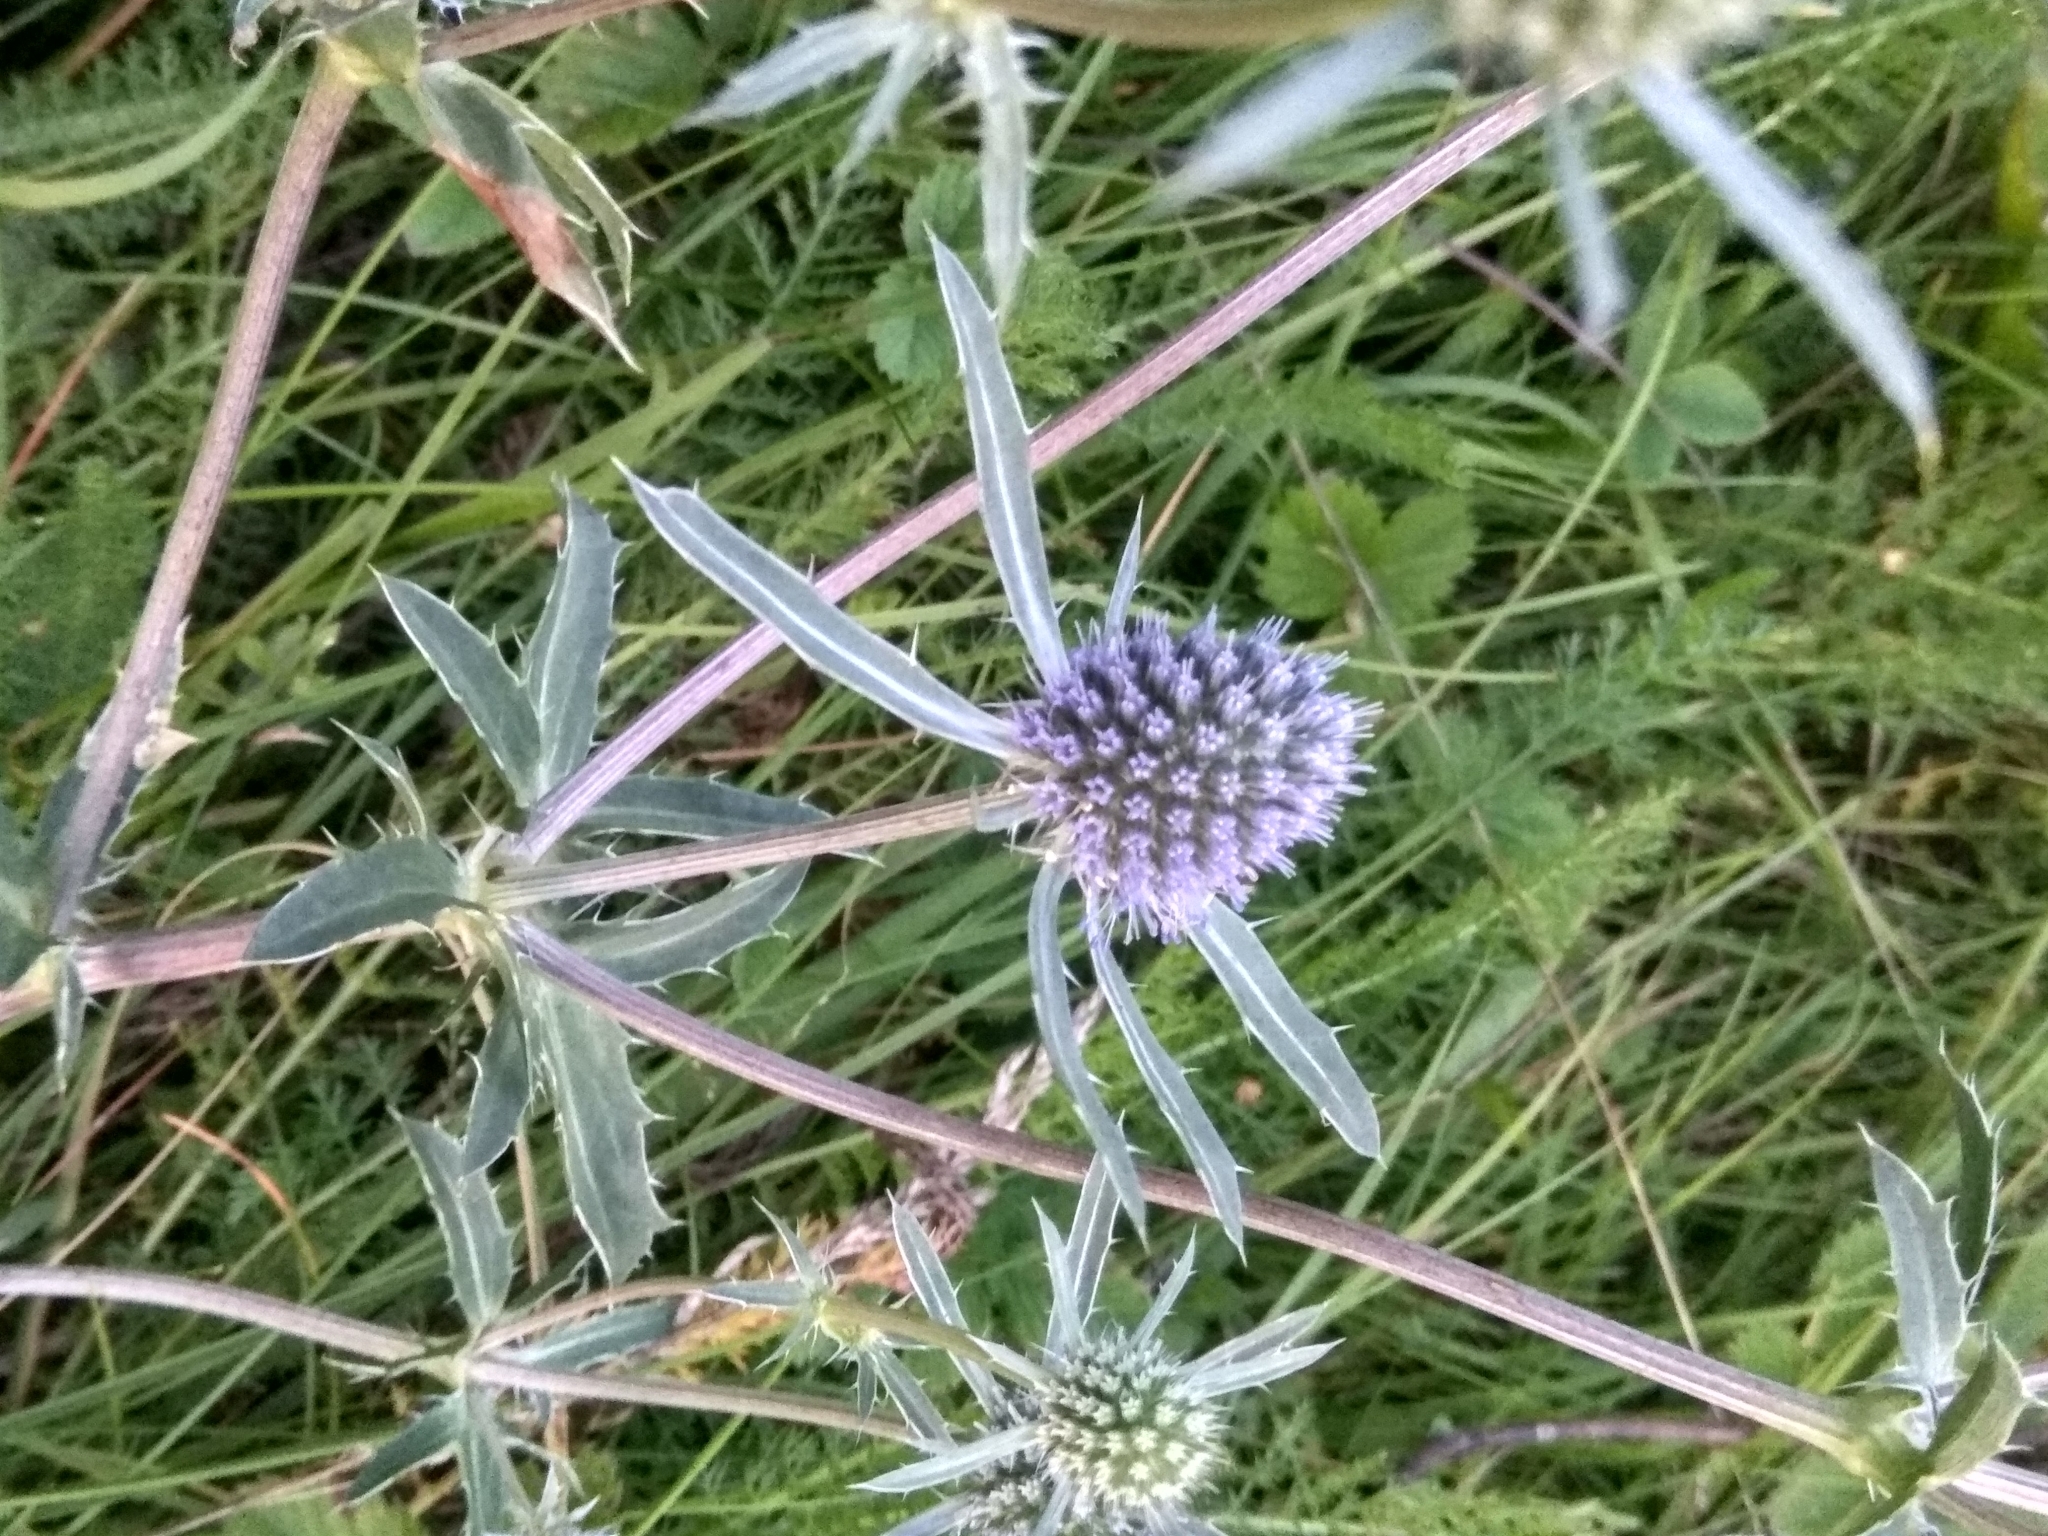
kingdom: Plantae
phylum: Tracheophyta
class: Magnoliopsida
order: Apiales
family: Apiaceae
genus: Eryngium
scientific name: Eryngium planum
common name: Blue eryngo
